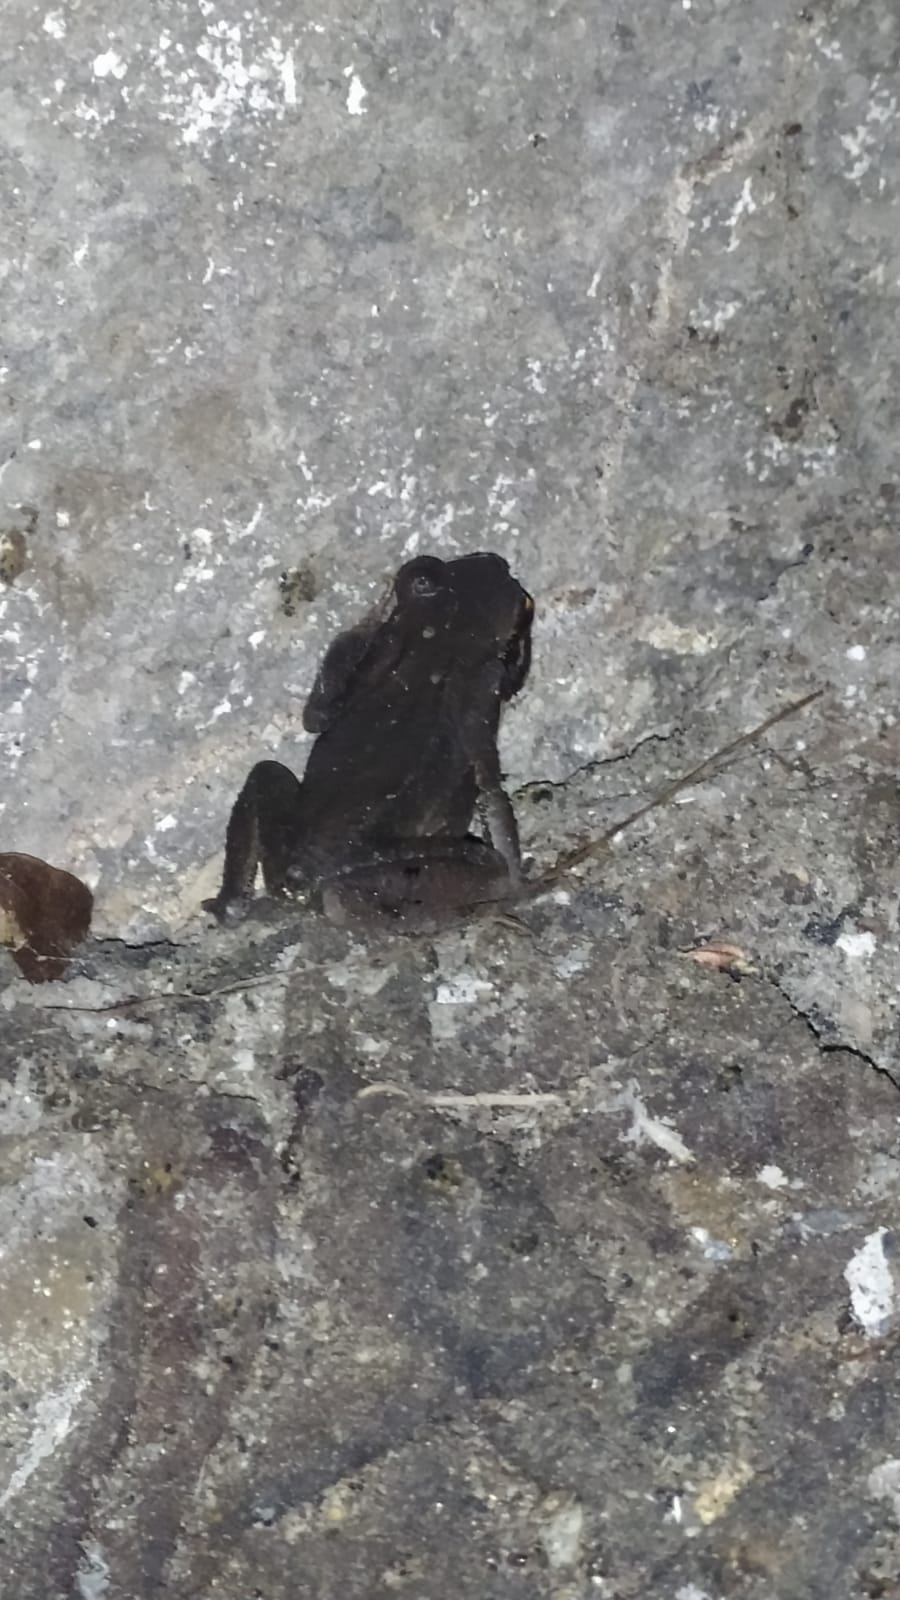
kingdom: Animalia
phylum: Chordata
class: Amphibia
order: Anura
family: Bufonidae
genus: Rhaebo
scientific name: Rhaebo haematiticus
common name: Truando toad
